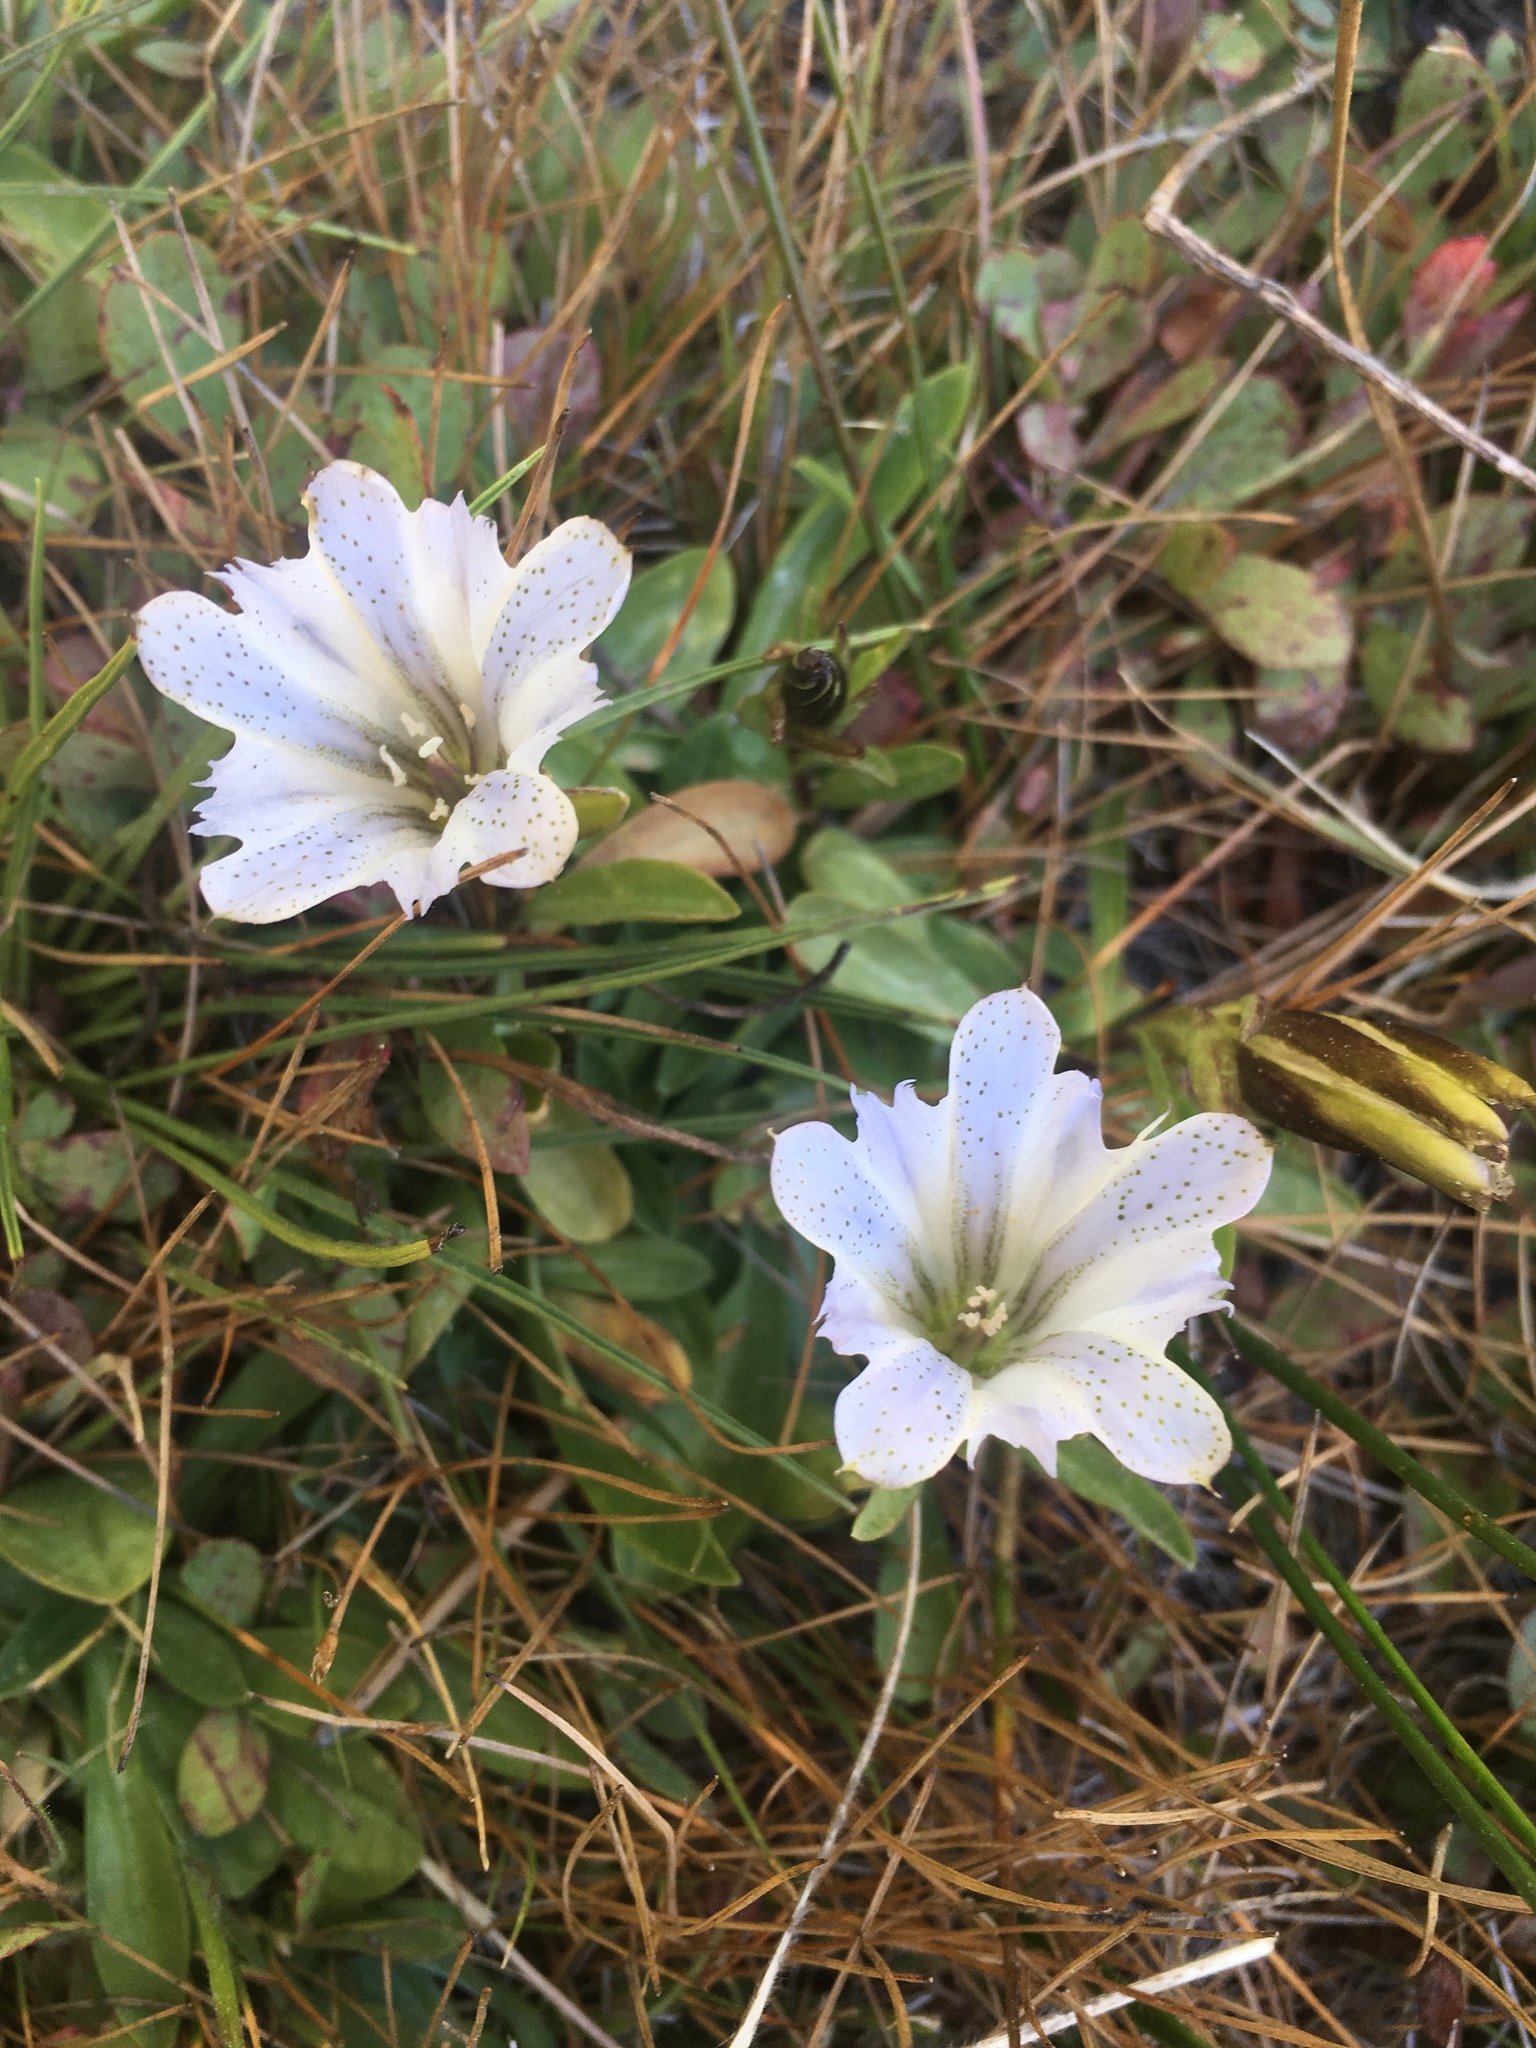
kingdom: Plantae
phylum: Tracheophyta
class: Magnoliopsida
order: Gentianales
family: Gentianaceae
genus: Gentiana
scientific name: Gentiana newberryi
